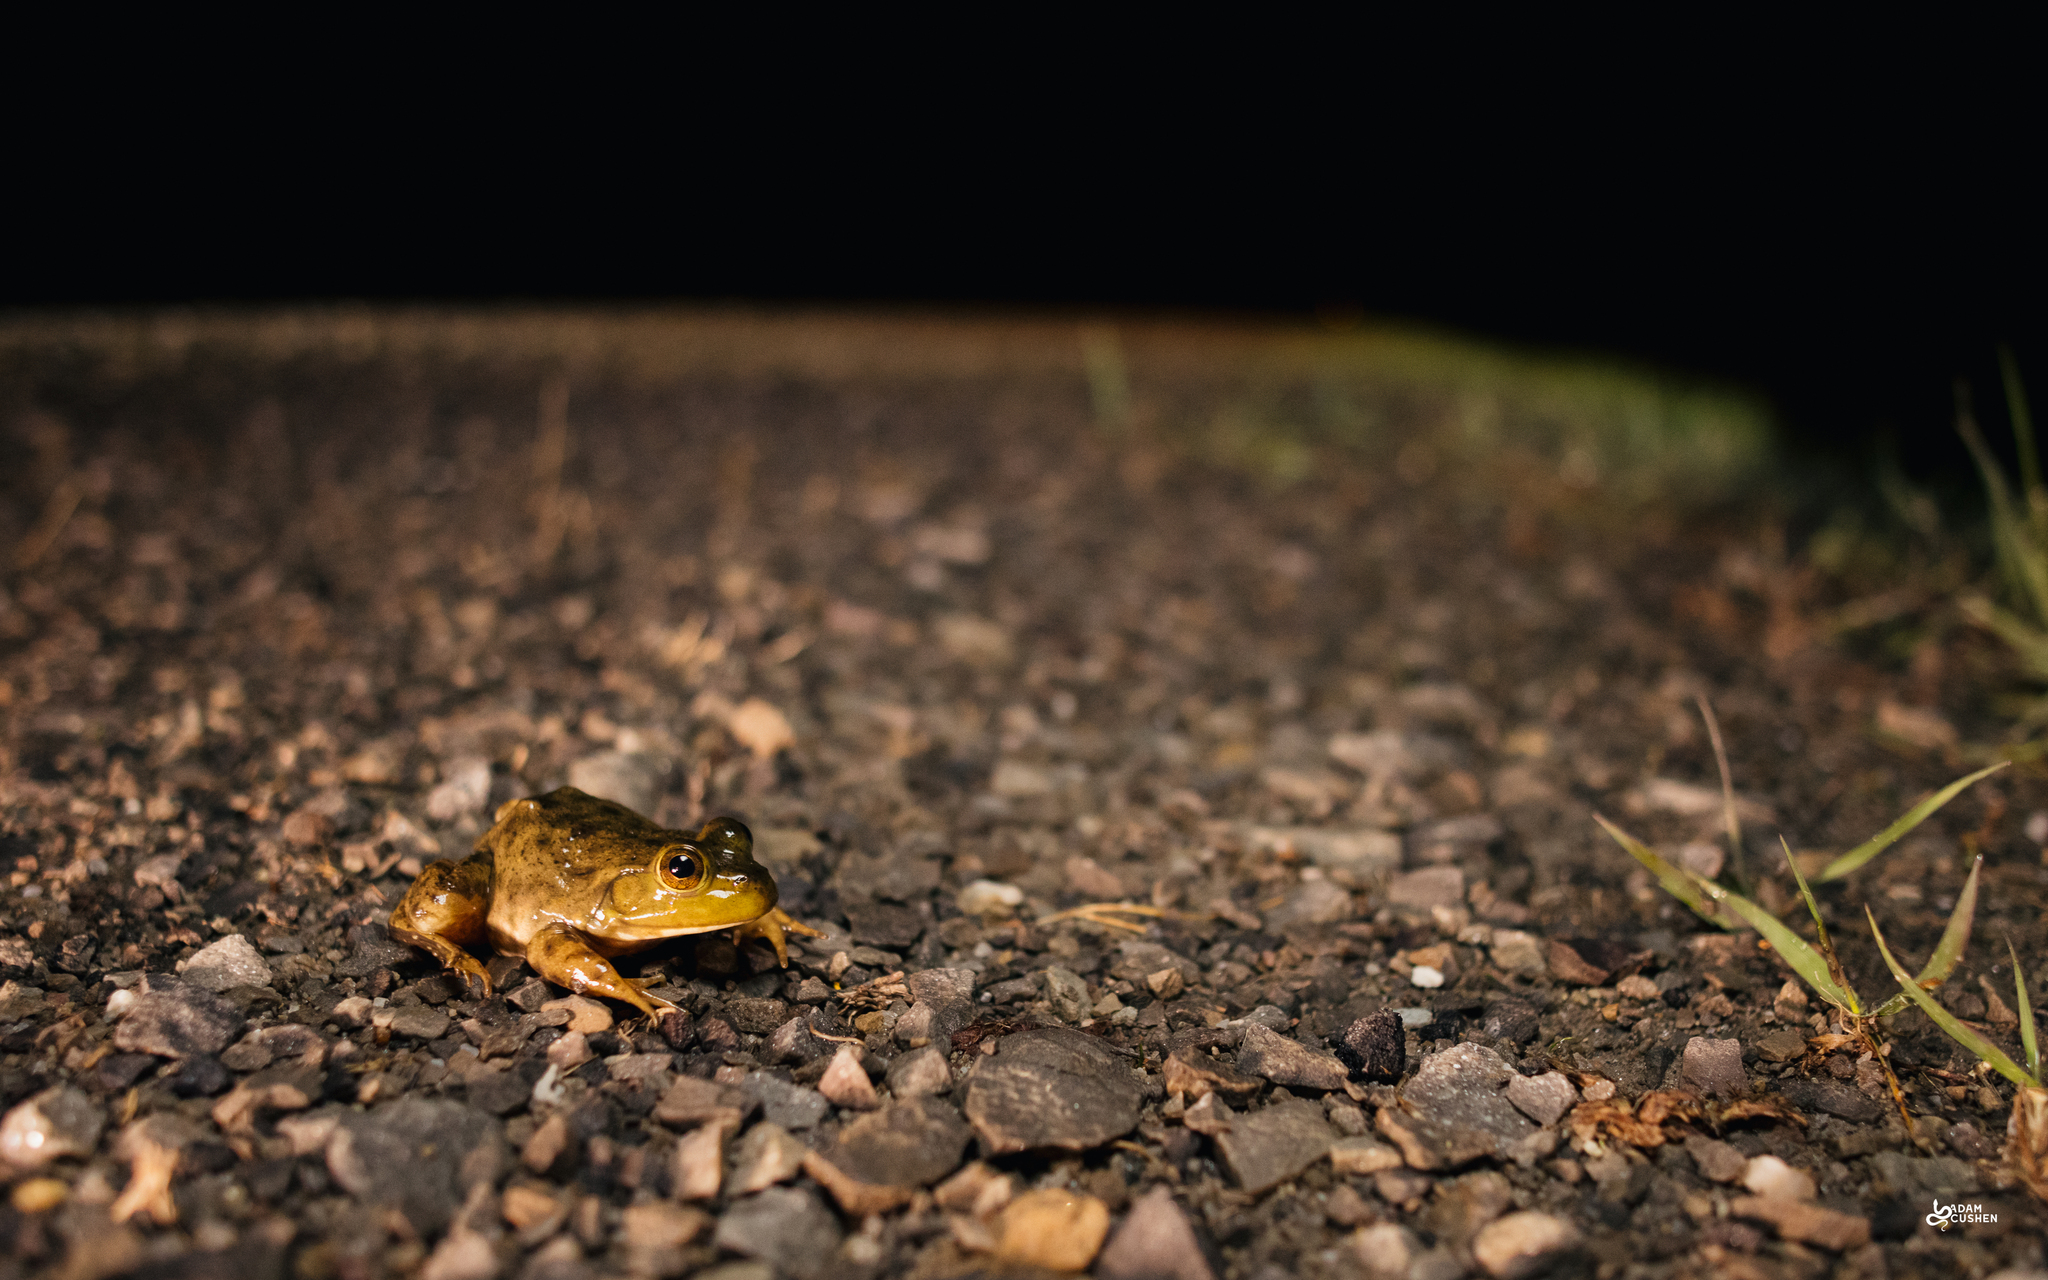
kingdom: Animalia
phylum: Chordata
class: Amphibia
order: Anura
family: Ranidae
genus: Lithobates
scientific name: Lithobates catesbeianus
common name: American bullfrog
